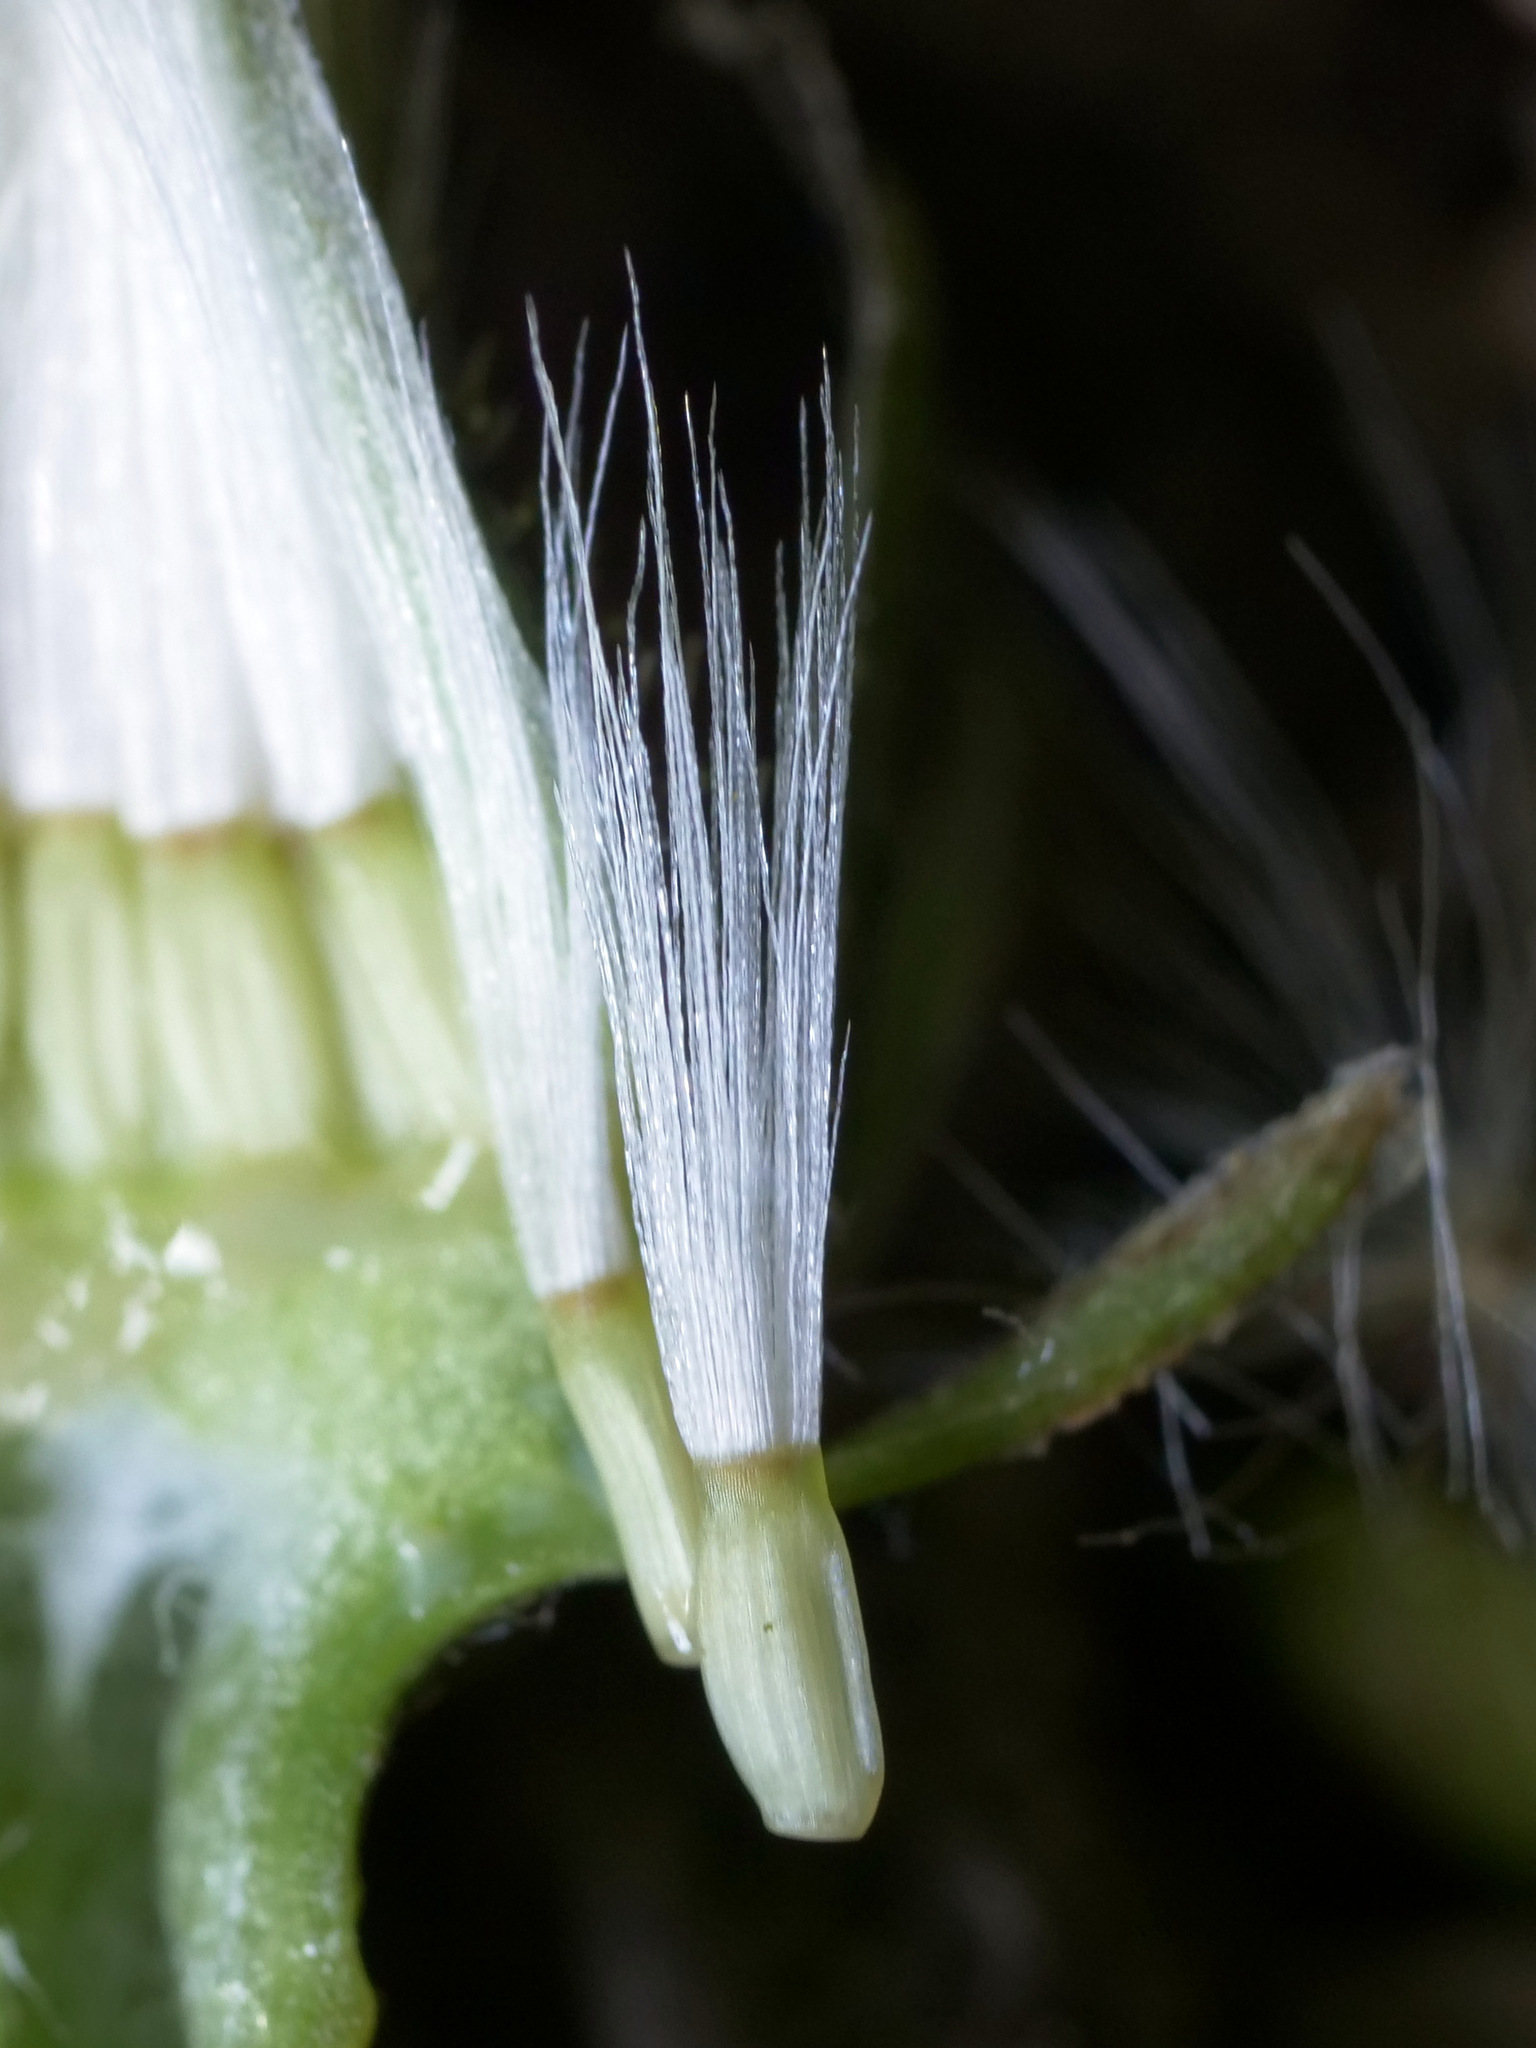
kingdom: Plantae
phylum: Tracheophyta
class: Magnoliopsida
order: Asterales
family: Asteraceae
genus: Crepis
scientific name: Crepis biennis
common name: Rough hawk's-beard
